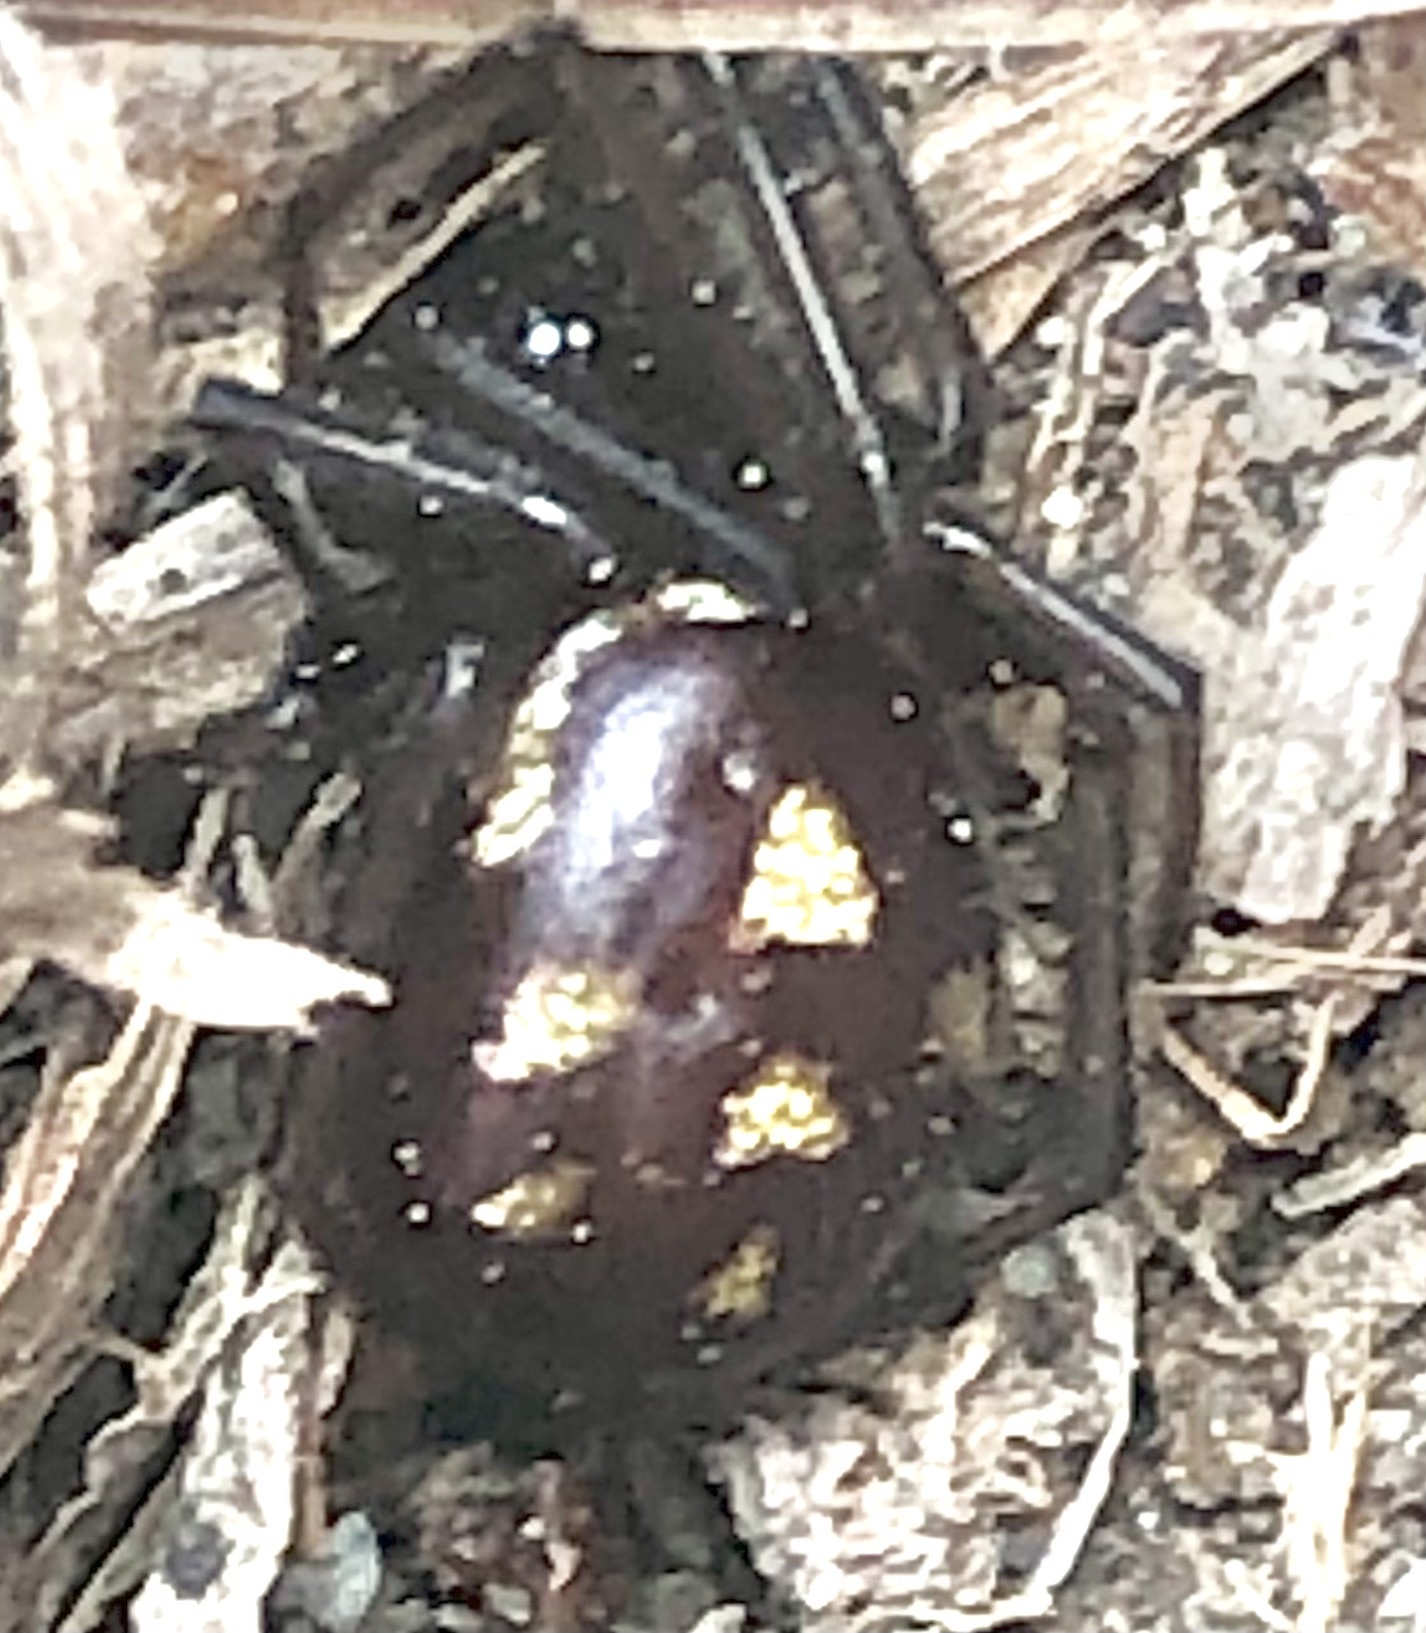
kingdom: Animalia
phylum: Arthropoda
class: Arachnida
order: Araneae
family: Theridiidae
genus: Steatoda
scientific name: Steatoda grossa
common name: False black widow
